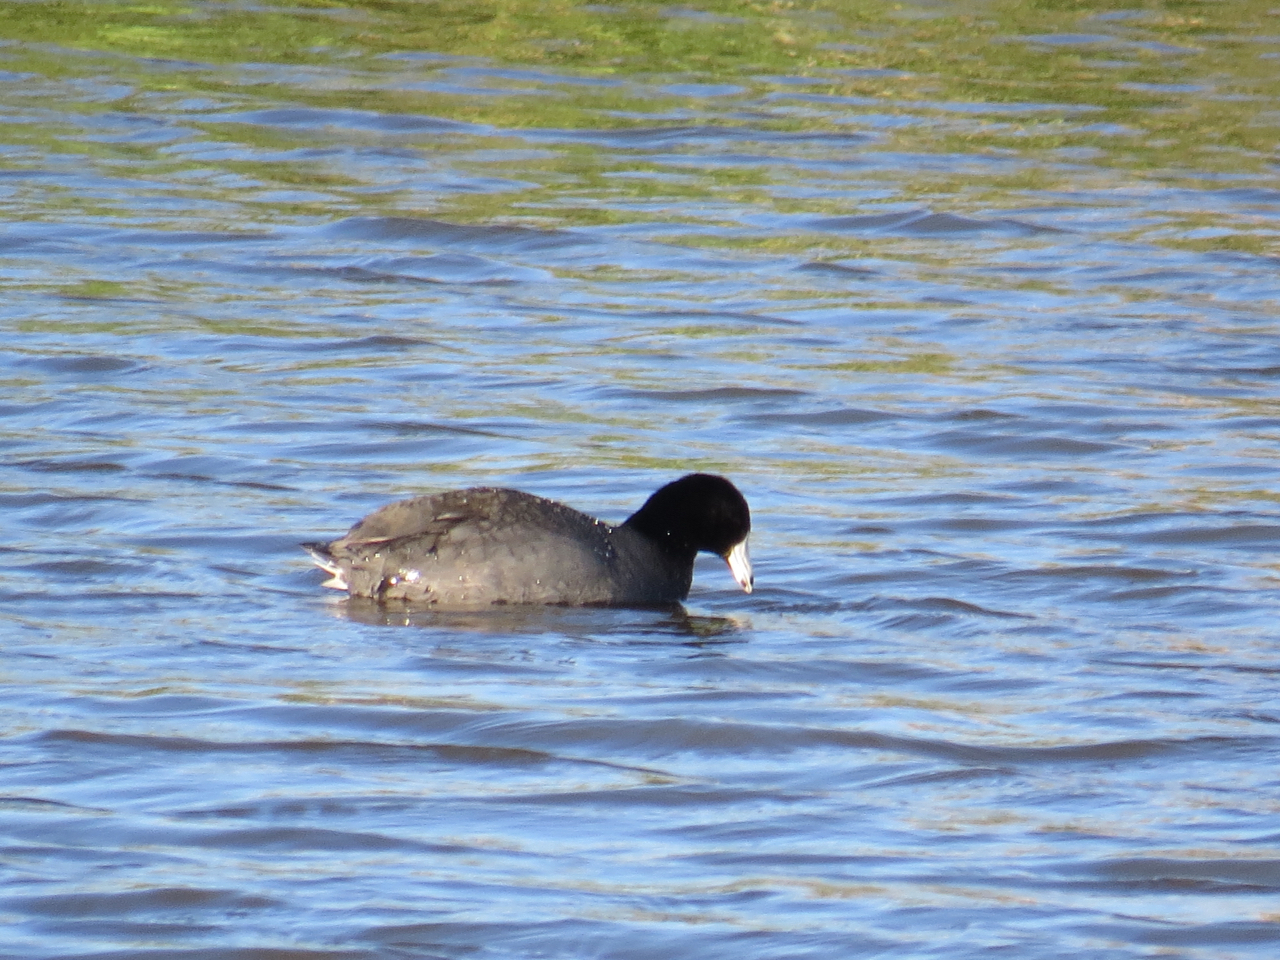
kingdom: Animalia
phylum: Chordata
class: Aves
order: Gruiformes
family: Rallidae
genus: Fulica
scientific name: Fulica americana
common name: American coot
